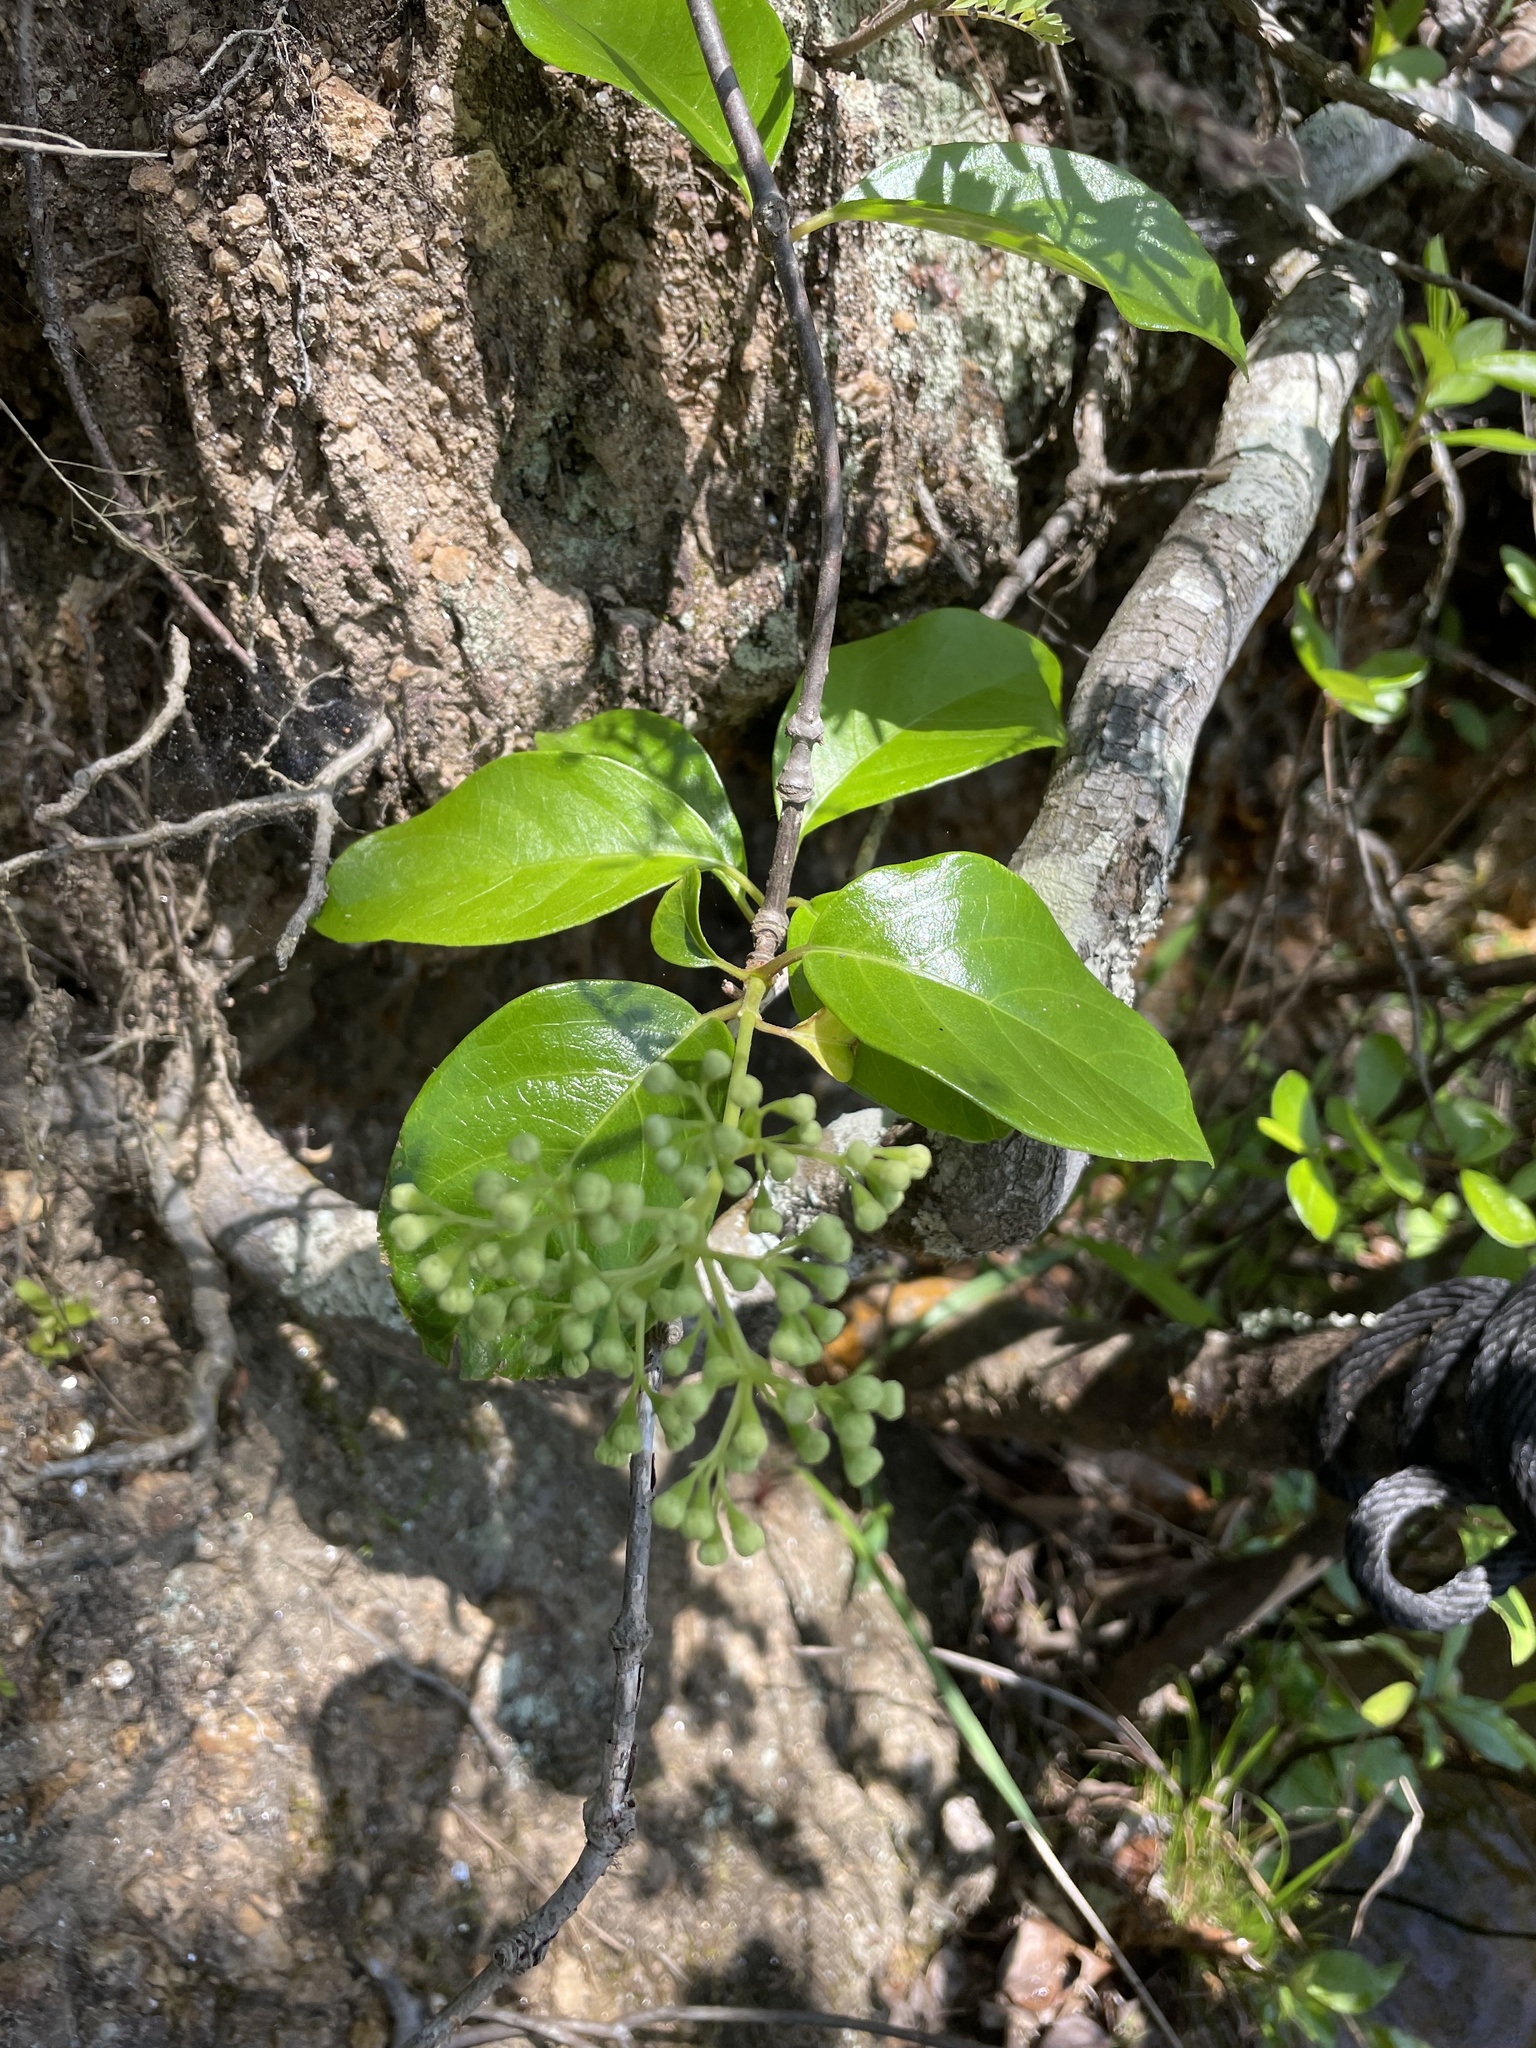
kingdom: Plantae
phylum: Tracheophyta
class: Magnoliopsida
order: Cornales
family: Hydrangeaceae
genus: Hydrangea
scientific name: Hydrangea barbara
